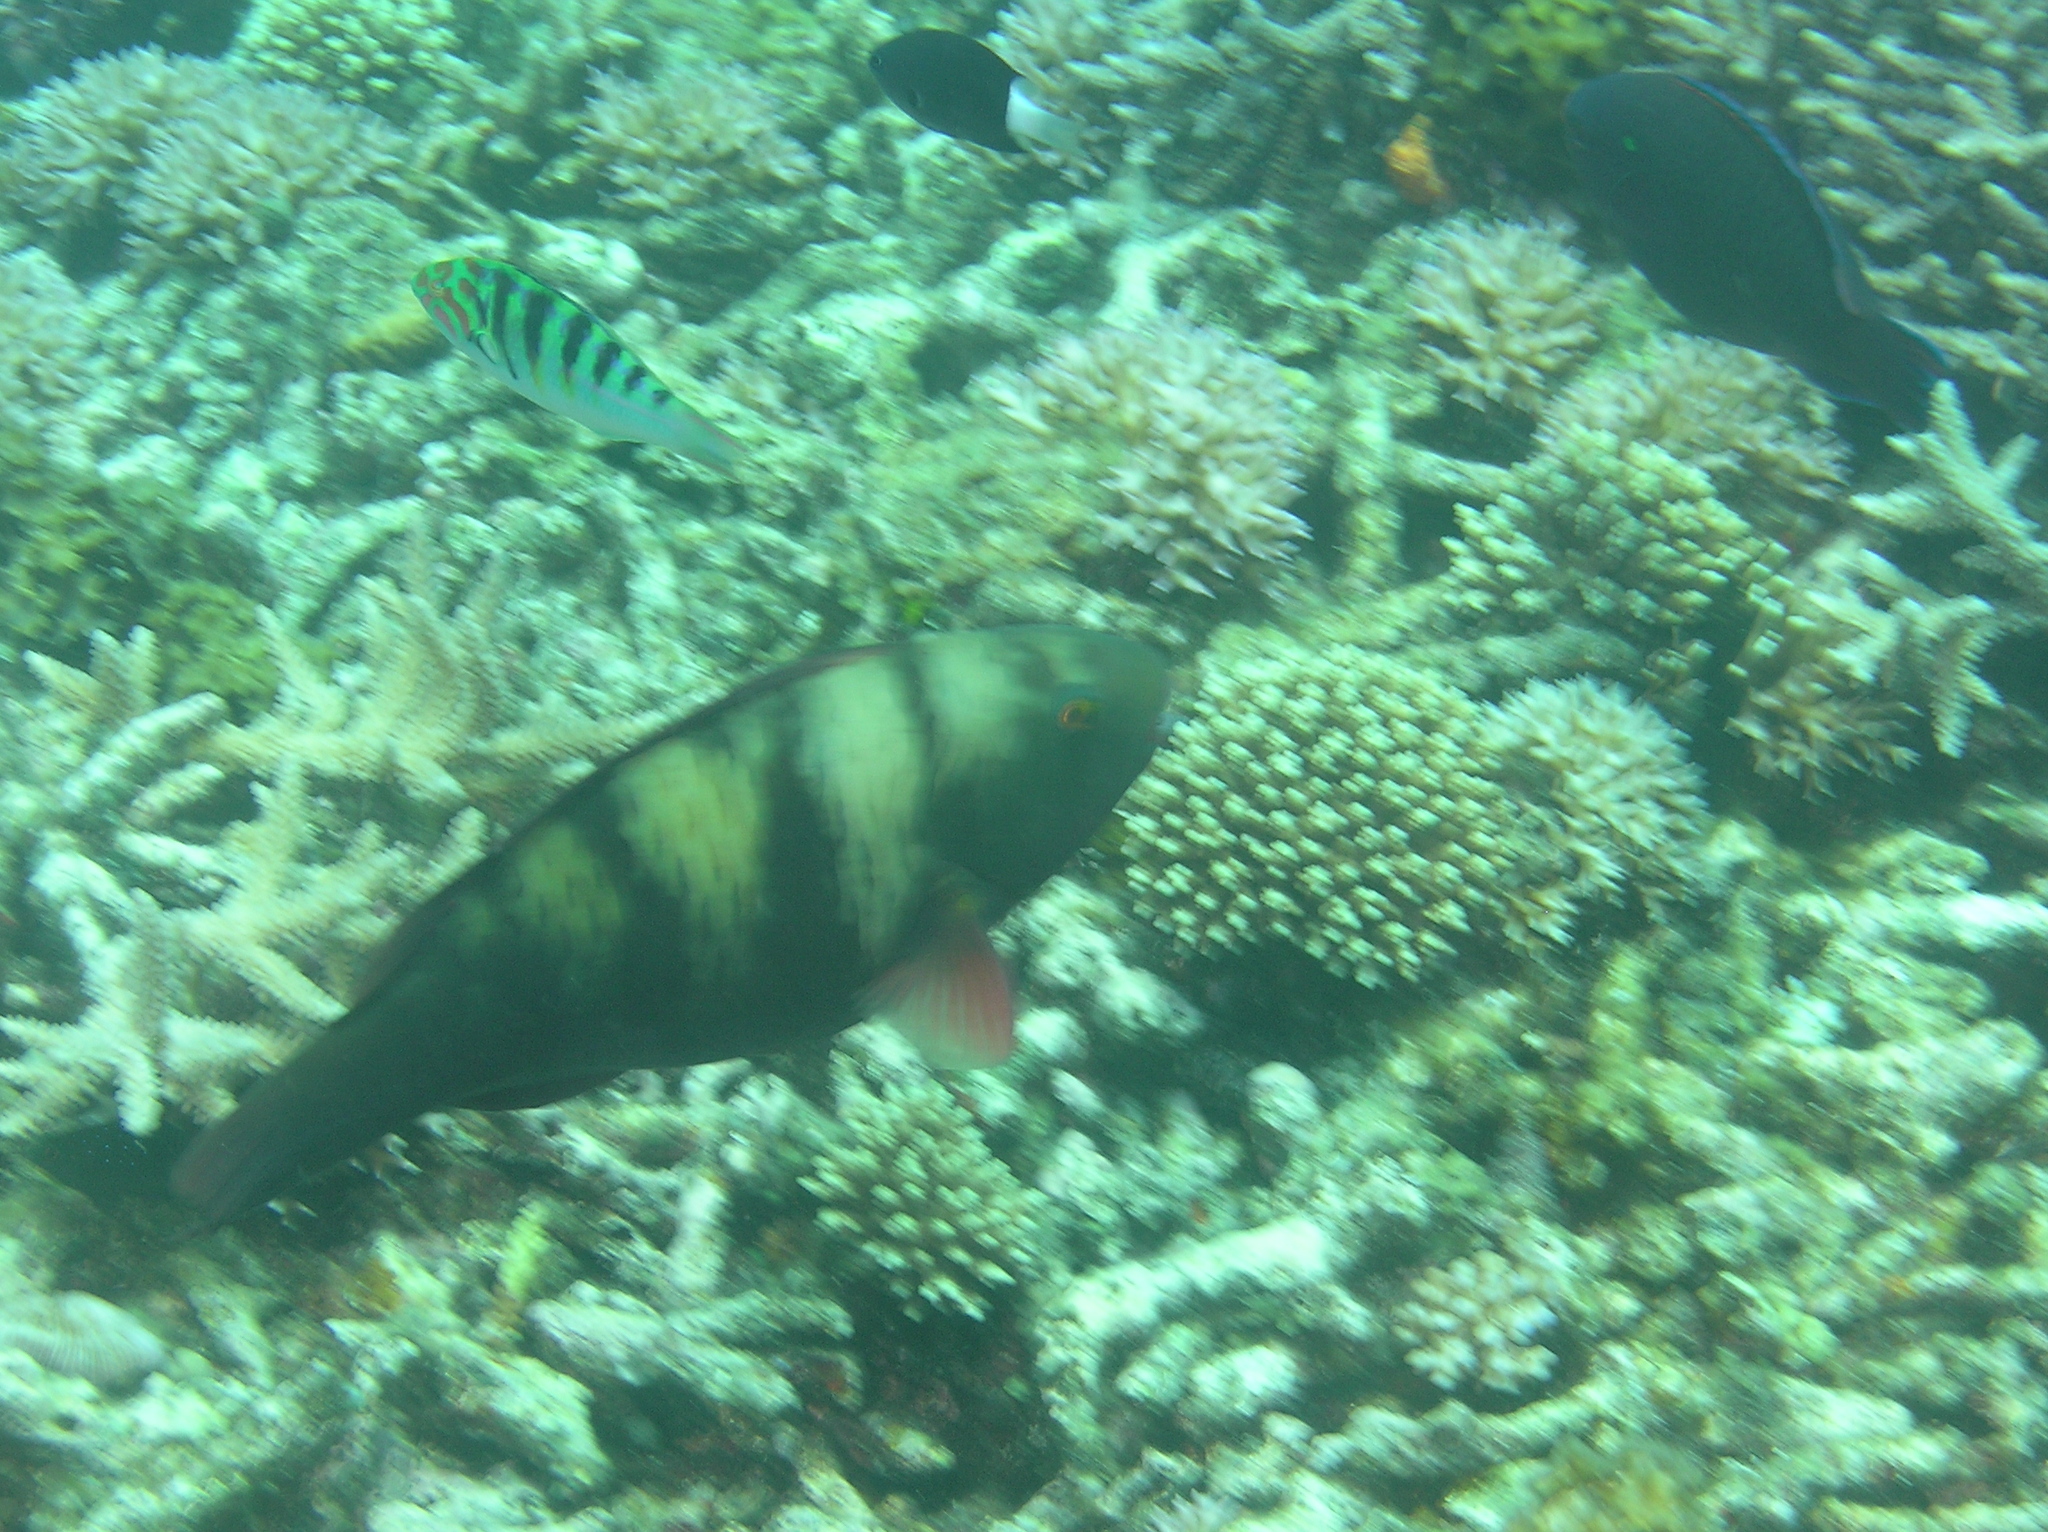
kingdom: Animalia
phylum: Chordata
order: Perciformes
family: Labridae
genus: Thalassoma
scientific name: Thalassoma hardwicke
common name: Sixbar wrasse
